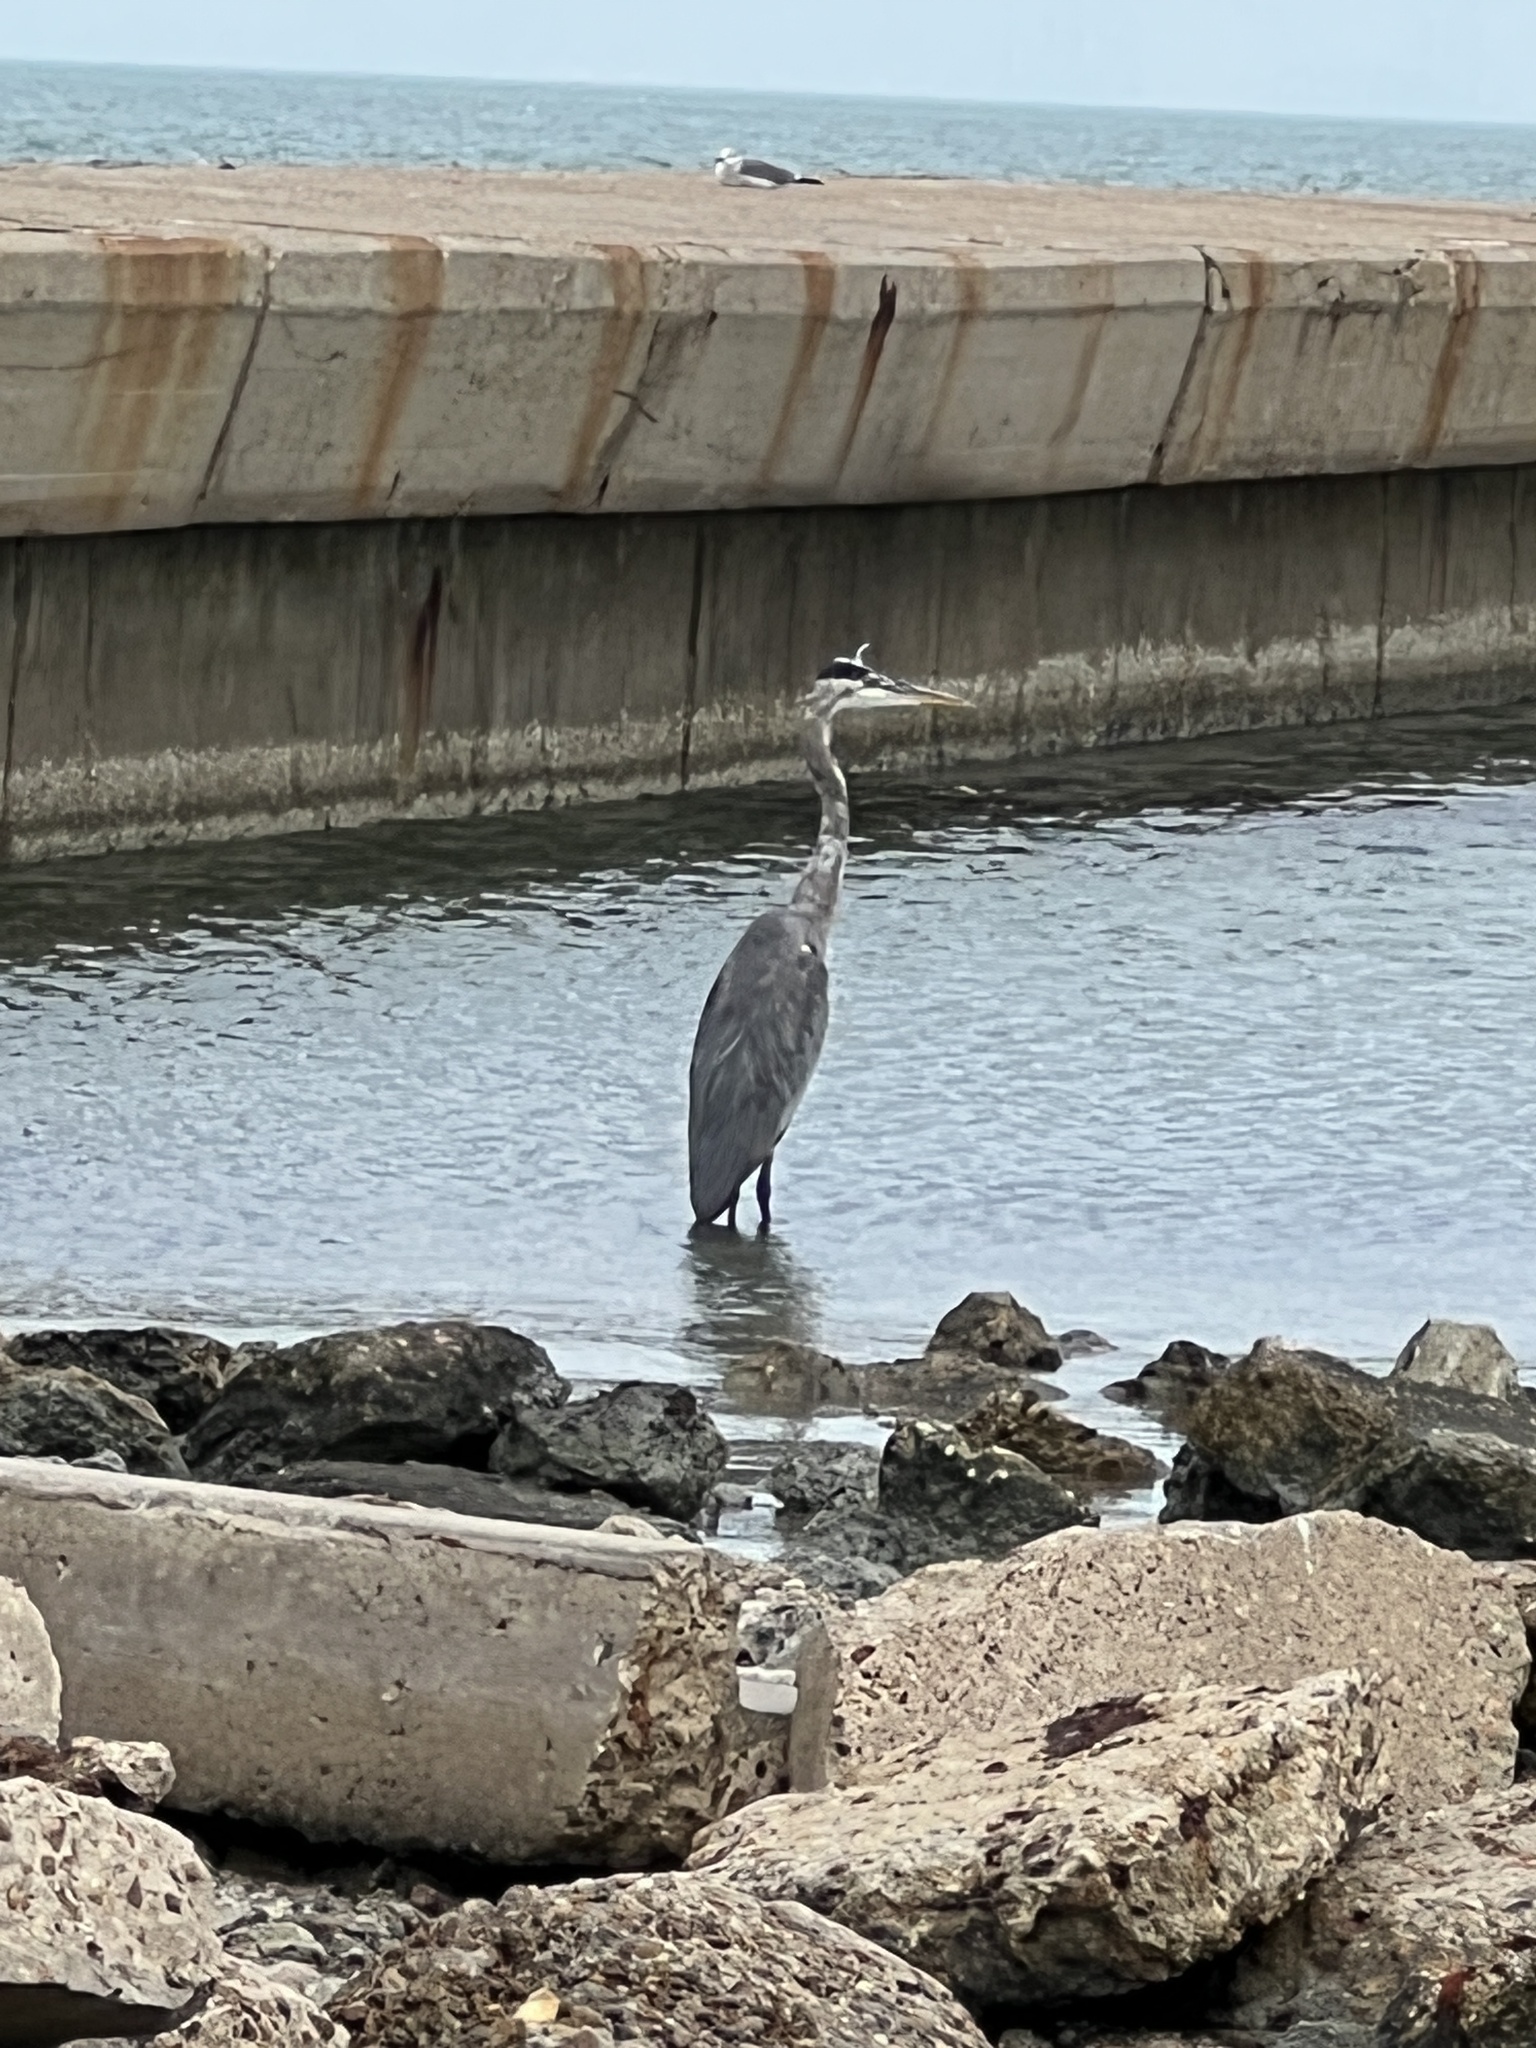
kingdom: Animalia
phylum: Chordata
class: Aves
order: Pelecaniformes
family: Ardeidae
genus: Ardea
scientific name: Ardea herodias
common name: Great blue heron
